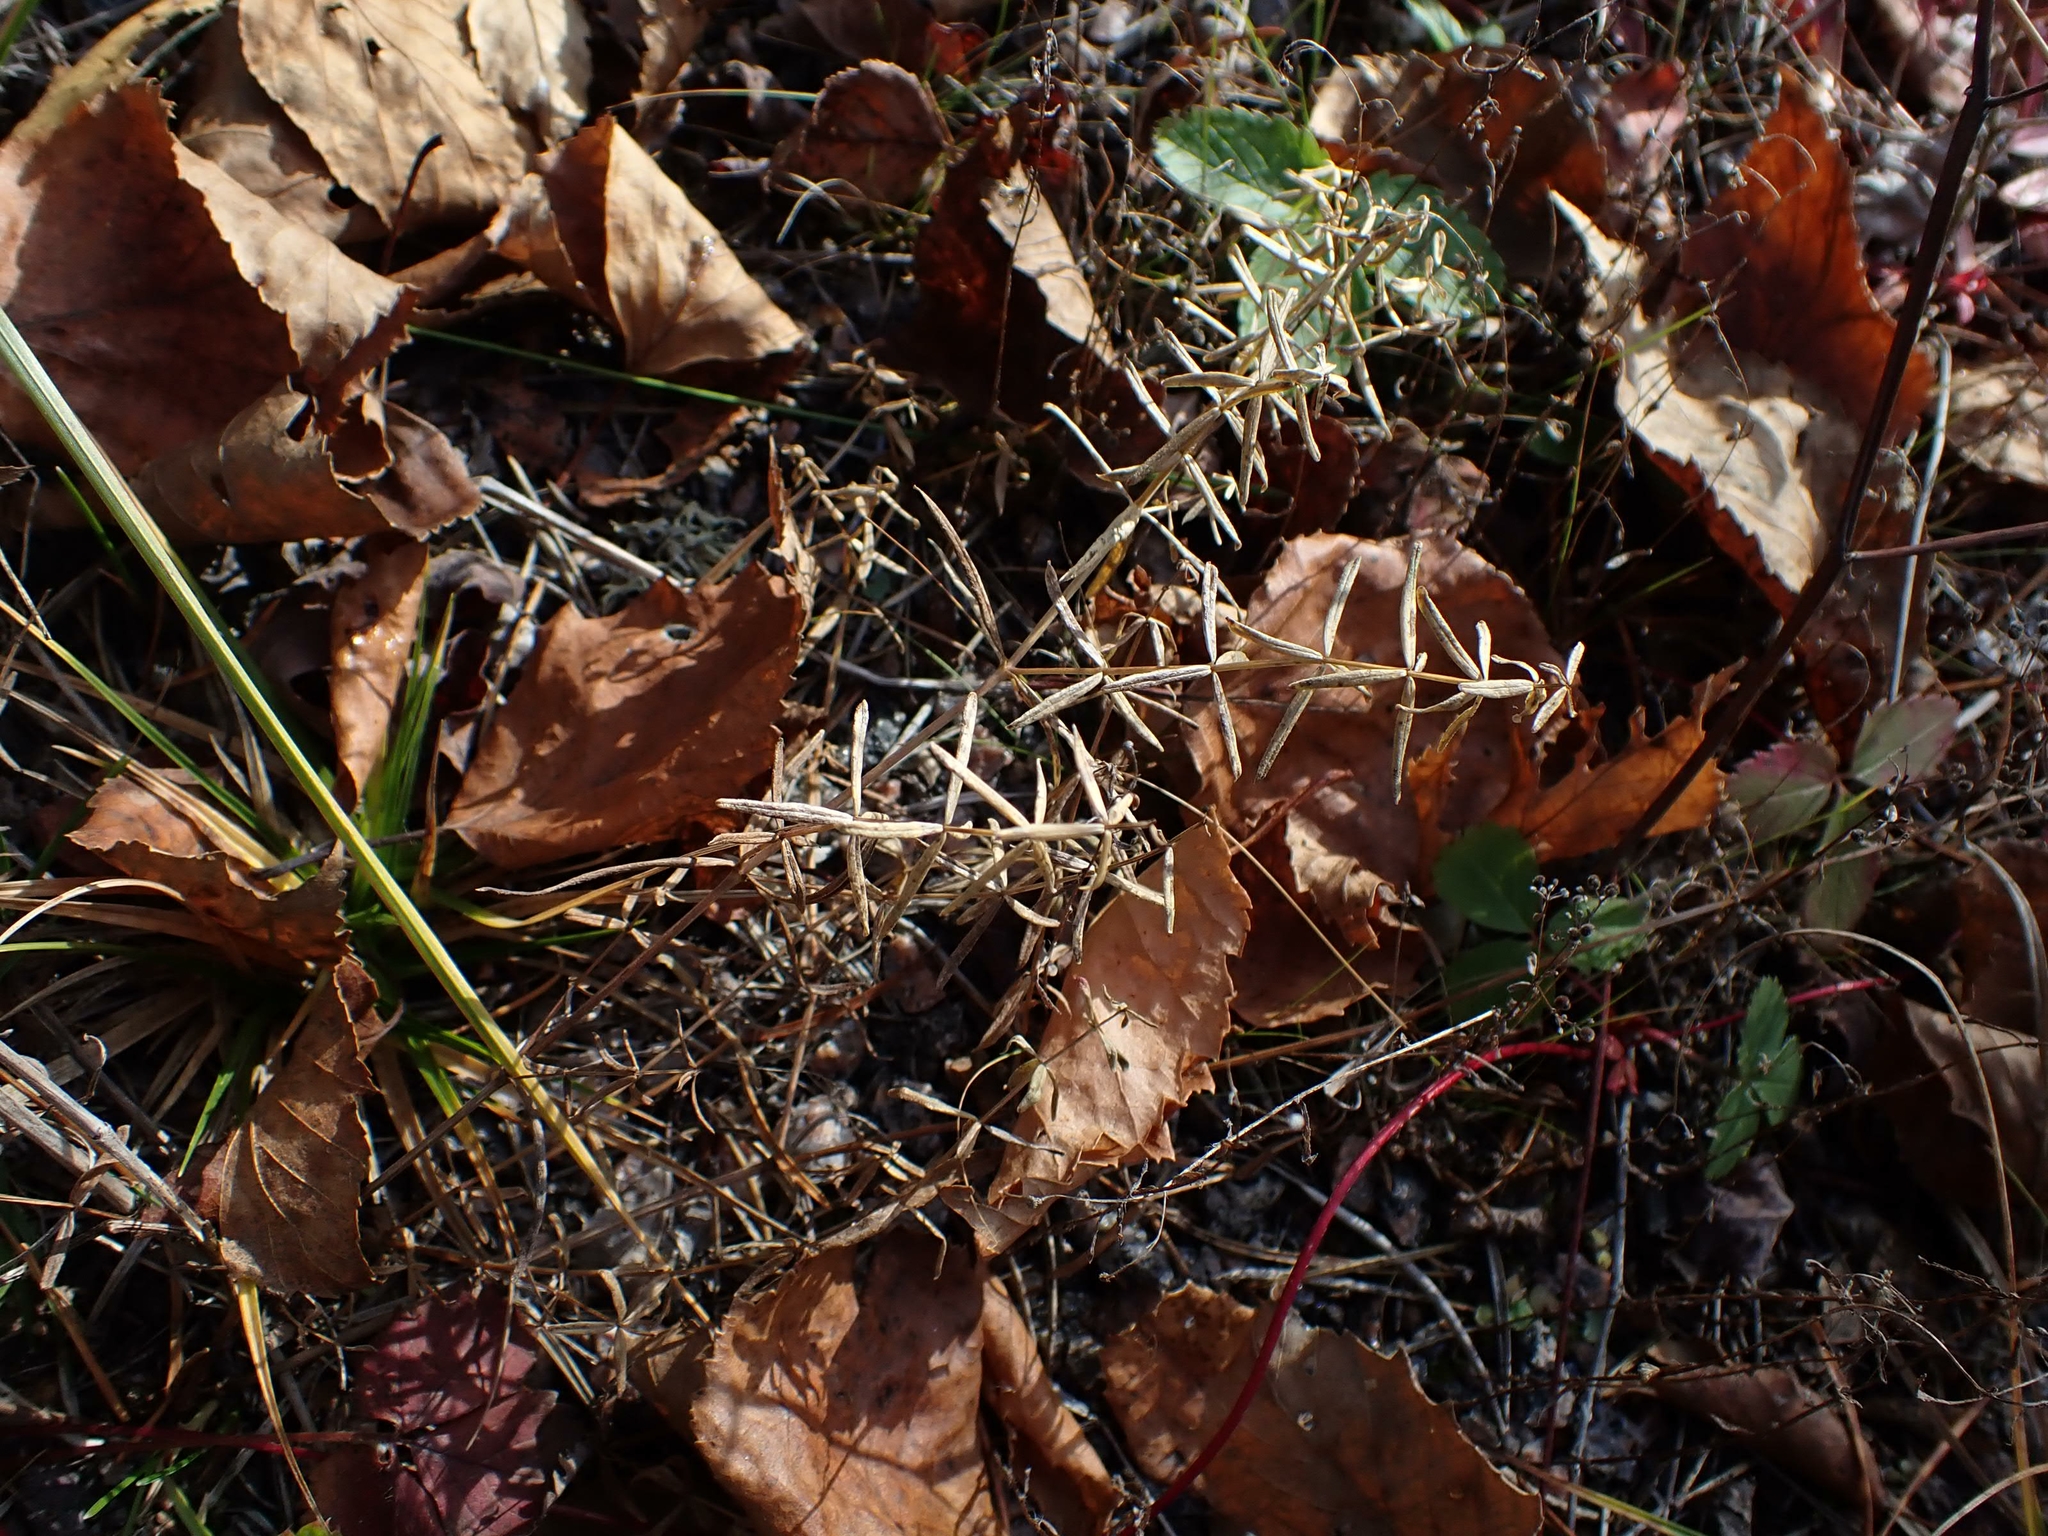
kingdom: Plantae
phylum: Tracheophyta
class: Magnoliopsida
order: Gentianales
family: Rubiaceae
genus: Galium
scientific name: Galium boreale
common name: Northern bedstraw
